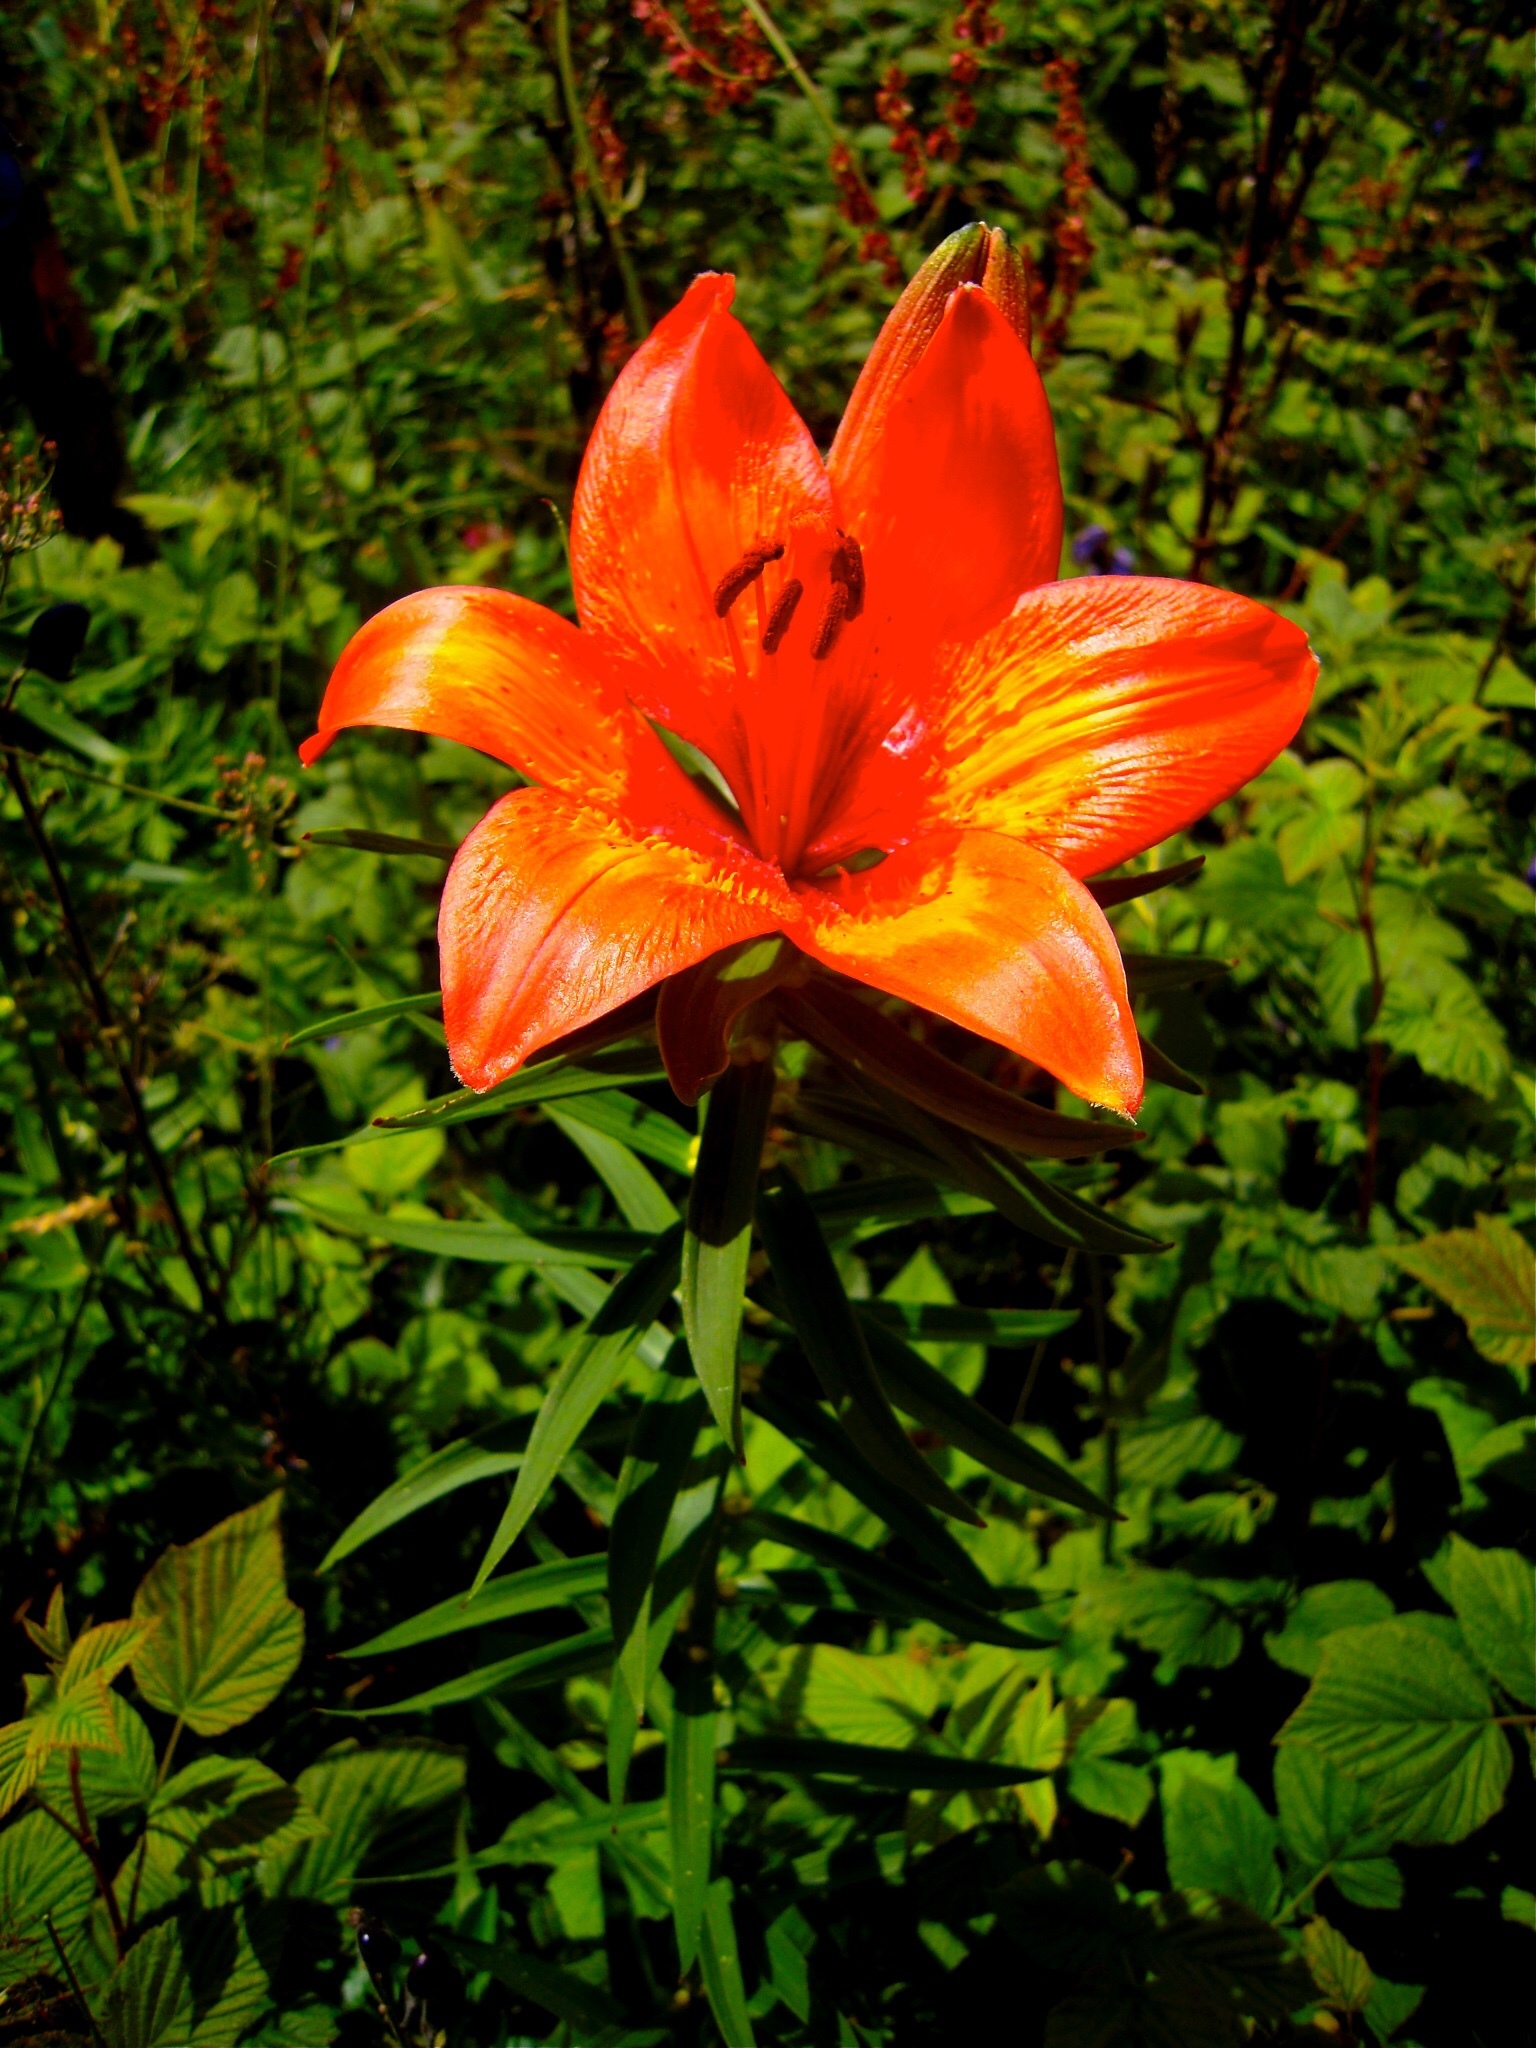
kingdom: Plantae
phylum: Tracheophyta
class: Liliopsida
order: Liliales
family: Liliaceae
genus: Lilium
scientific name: Lilium bulbiferum
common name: Orange lily
